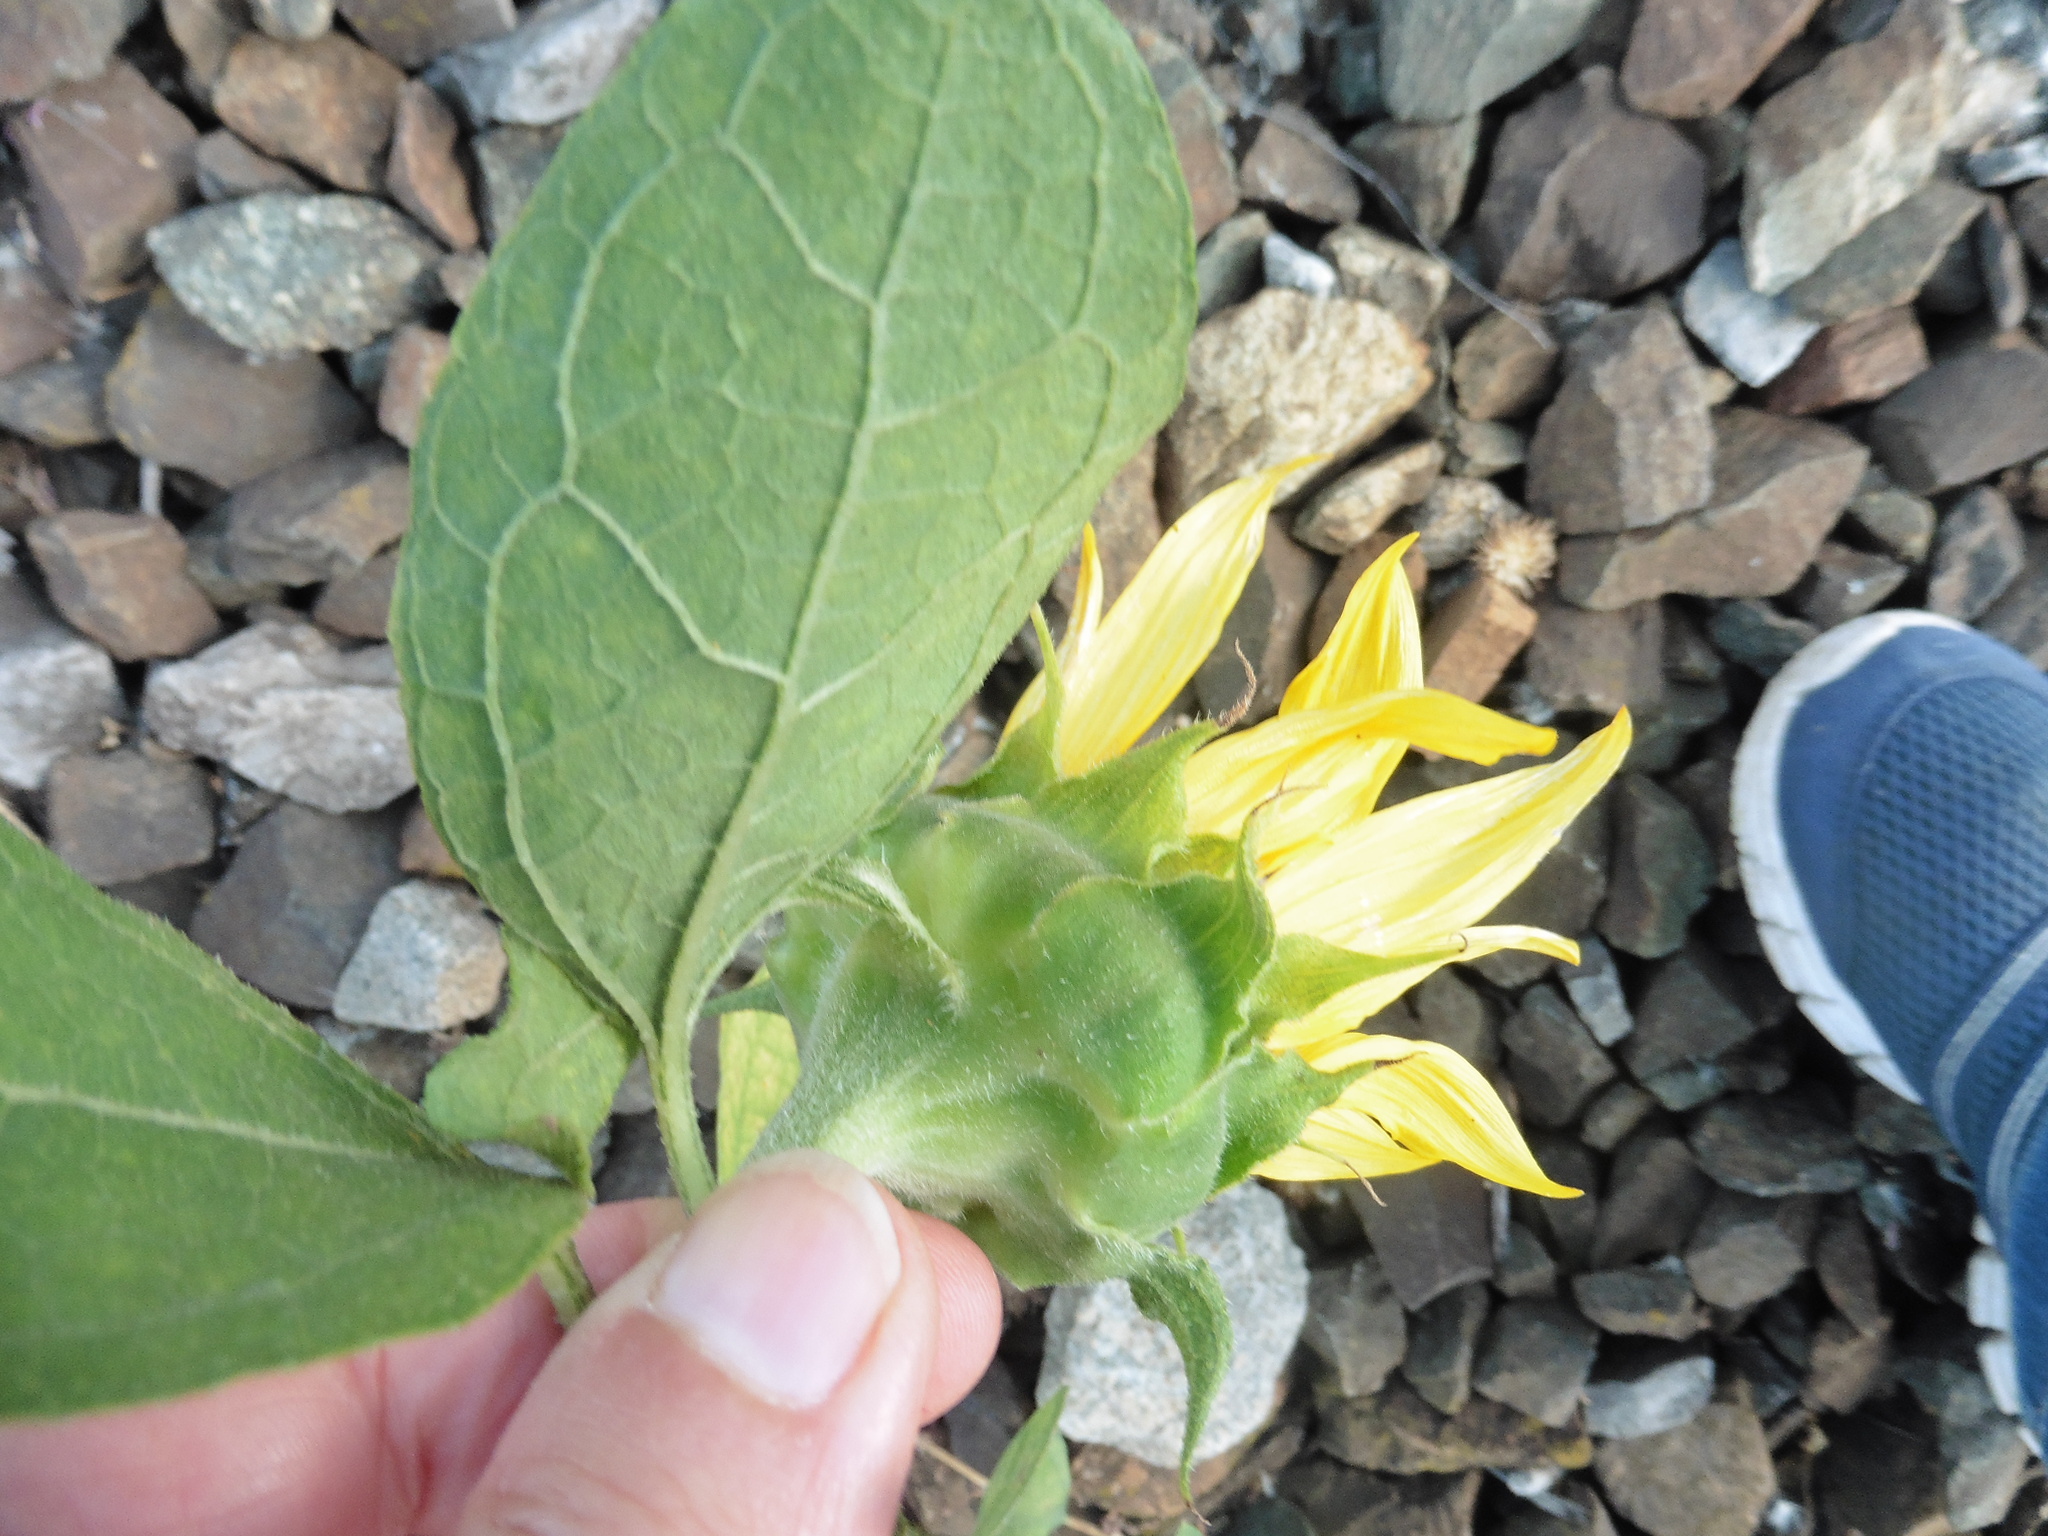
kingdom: Plantae
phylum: Tracheophyta
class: Magnoliopsida
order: Asterales
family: Asteraceae
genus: Helianthus
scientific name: Helianthus annuus
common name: Sunflower
